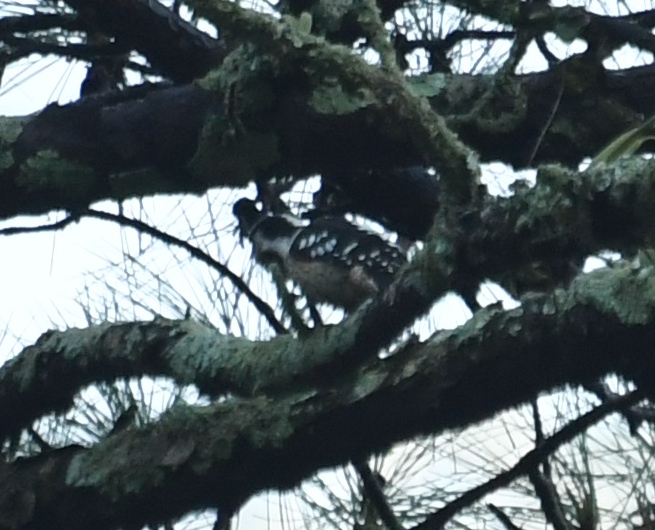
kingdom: Animalia
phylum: Chordata
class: Aves
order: Piciformes
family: Picidae
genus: Yungipicus
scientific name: Yungipicus canicapillus
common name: Grey-capped pygmy woodpecker
